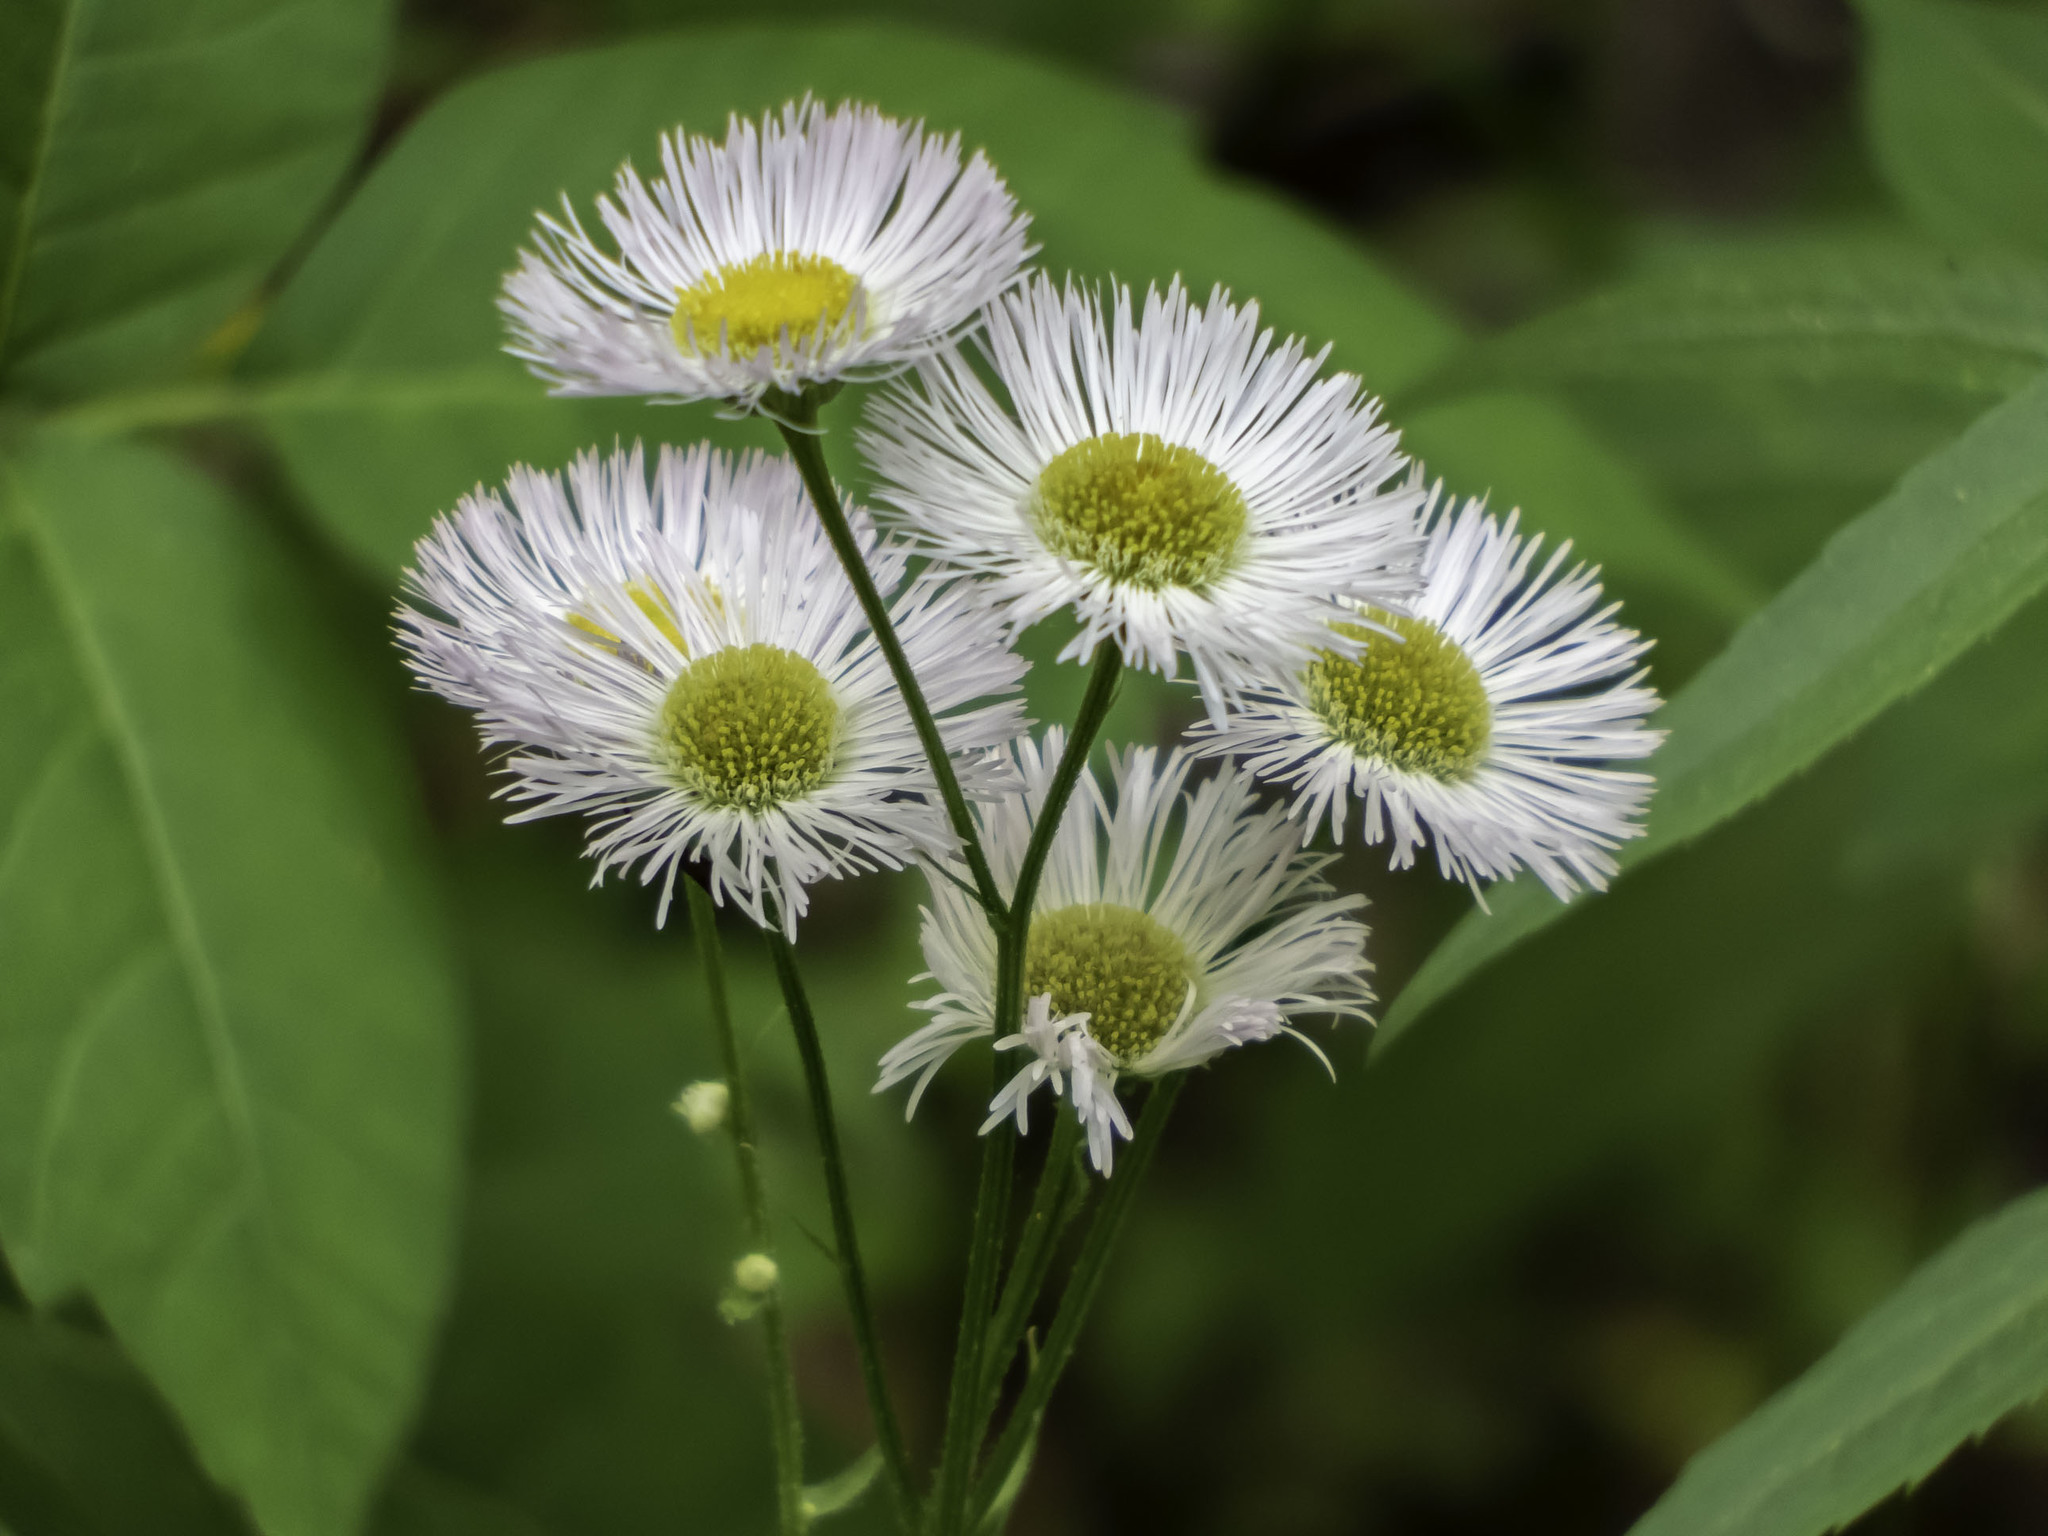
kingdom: Plantae
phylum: Tracheophyta
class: Magnoliopsida
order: Asterales
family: Asteraceae
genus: Erigeron
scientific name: Erigeron philadelphicus
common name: Robin's-plantain
